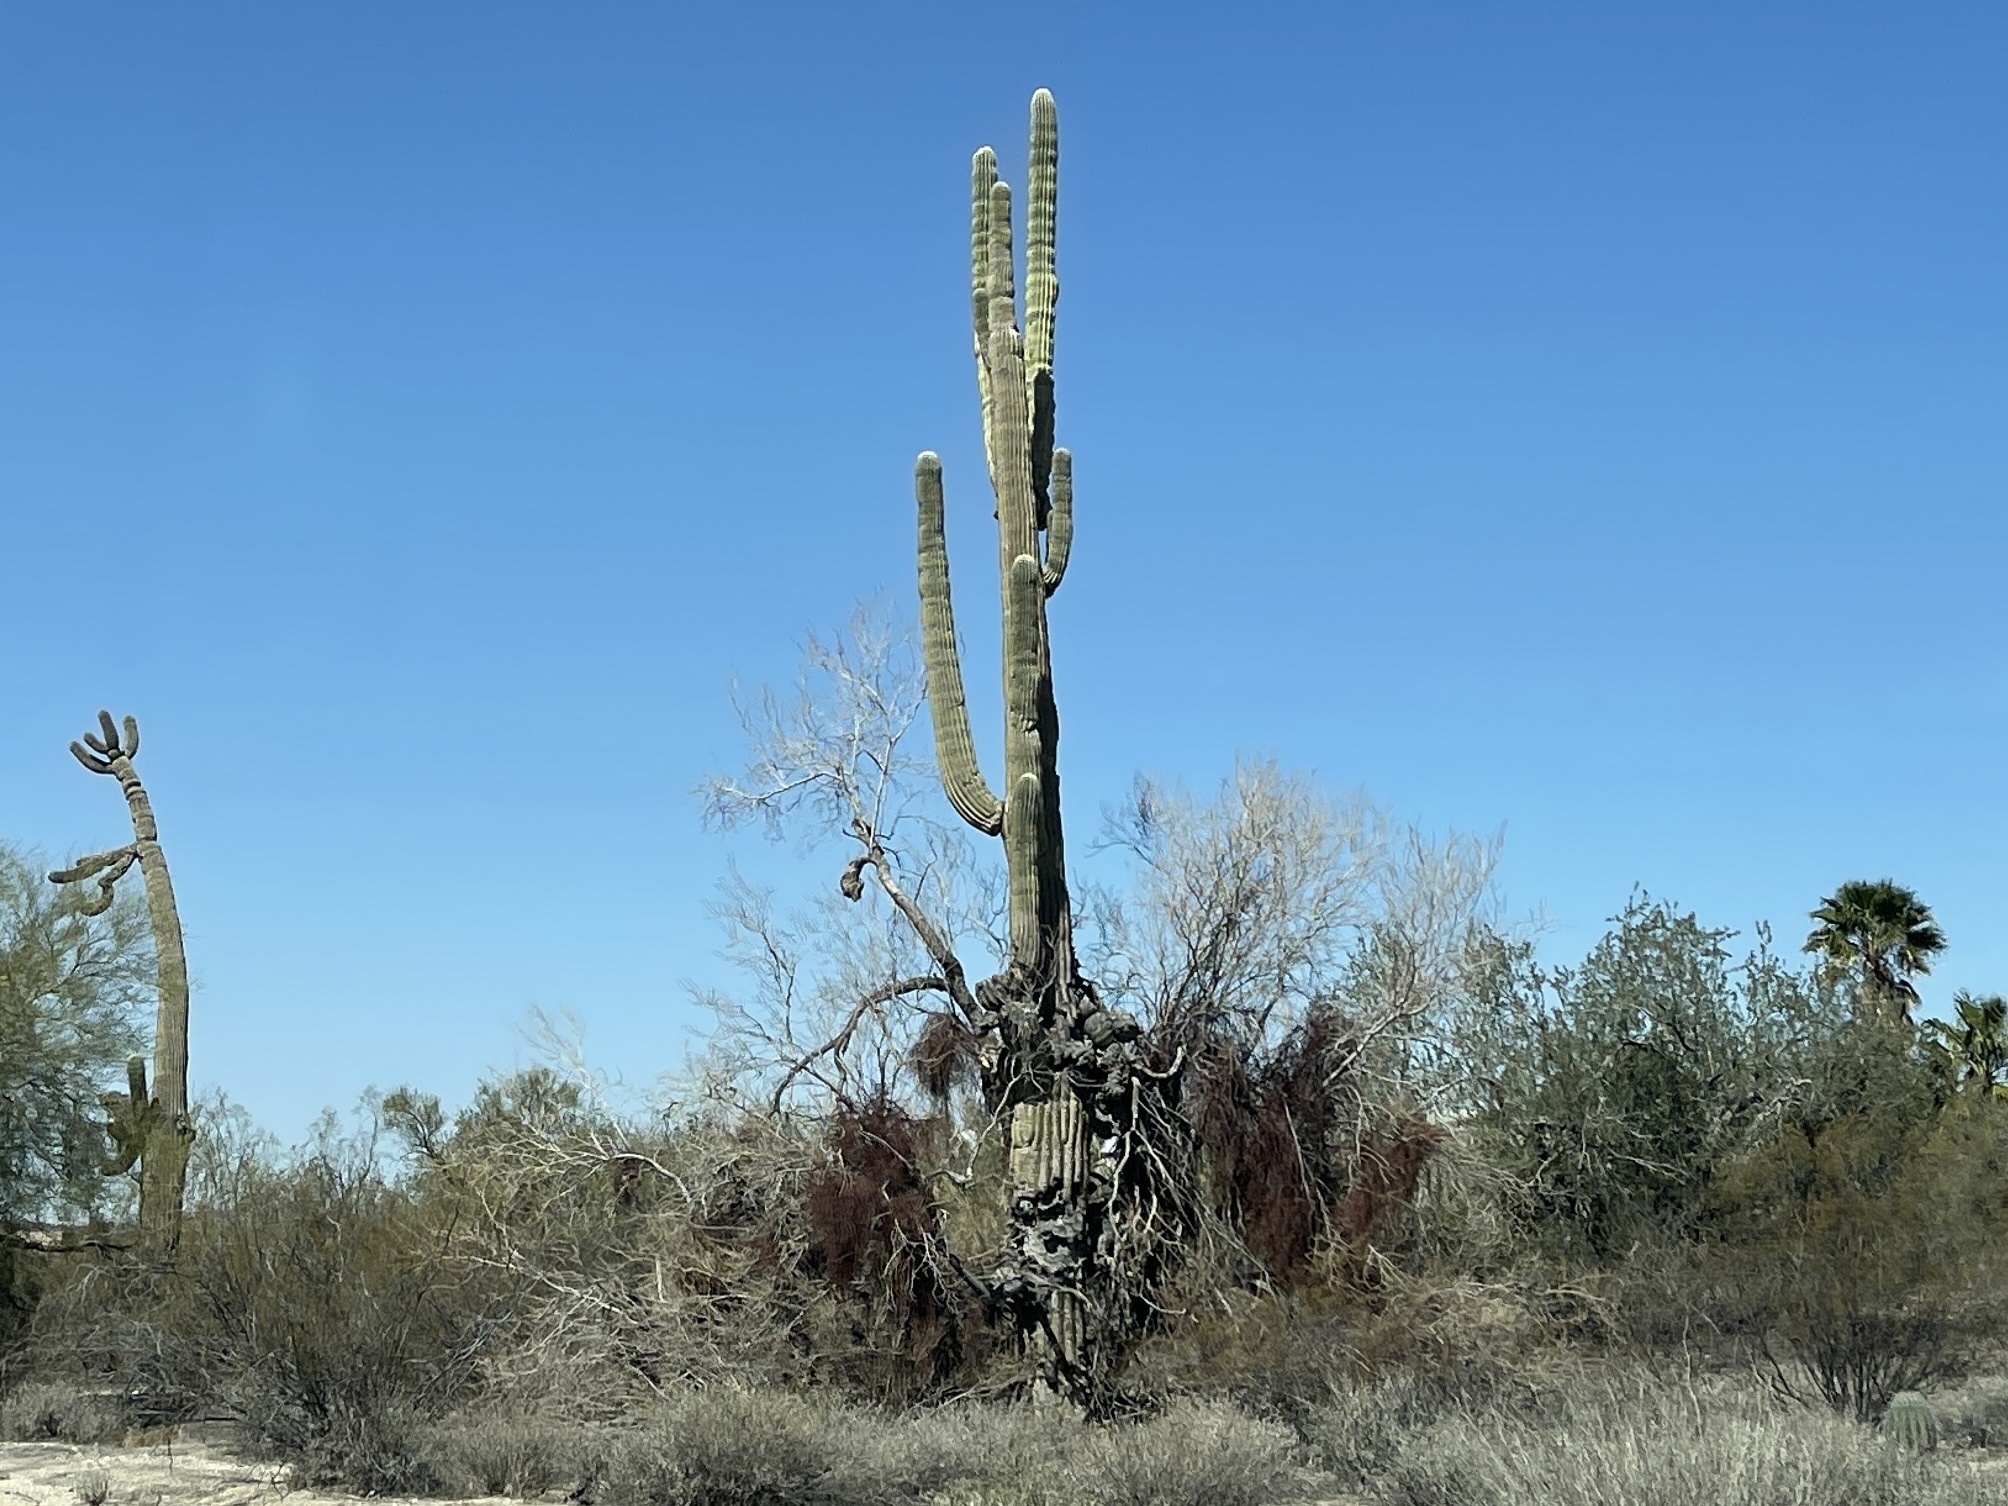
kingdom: Plantae
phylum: Tracheophyta
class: Magnoliopsida
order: Caryophyllales
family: Cactaceae
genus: Carnegiea
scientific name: Carnegiea gigantea
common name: Saguaro
